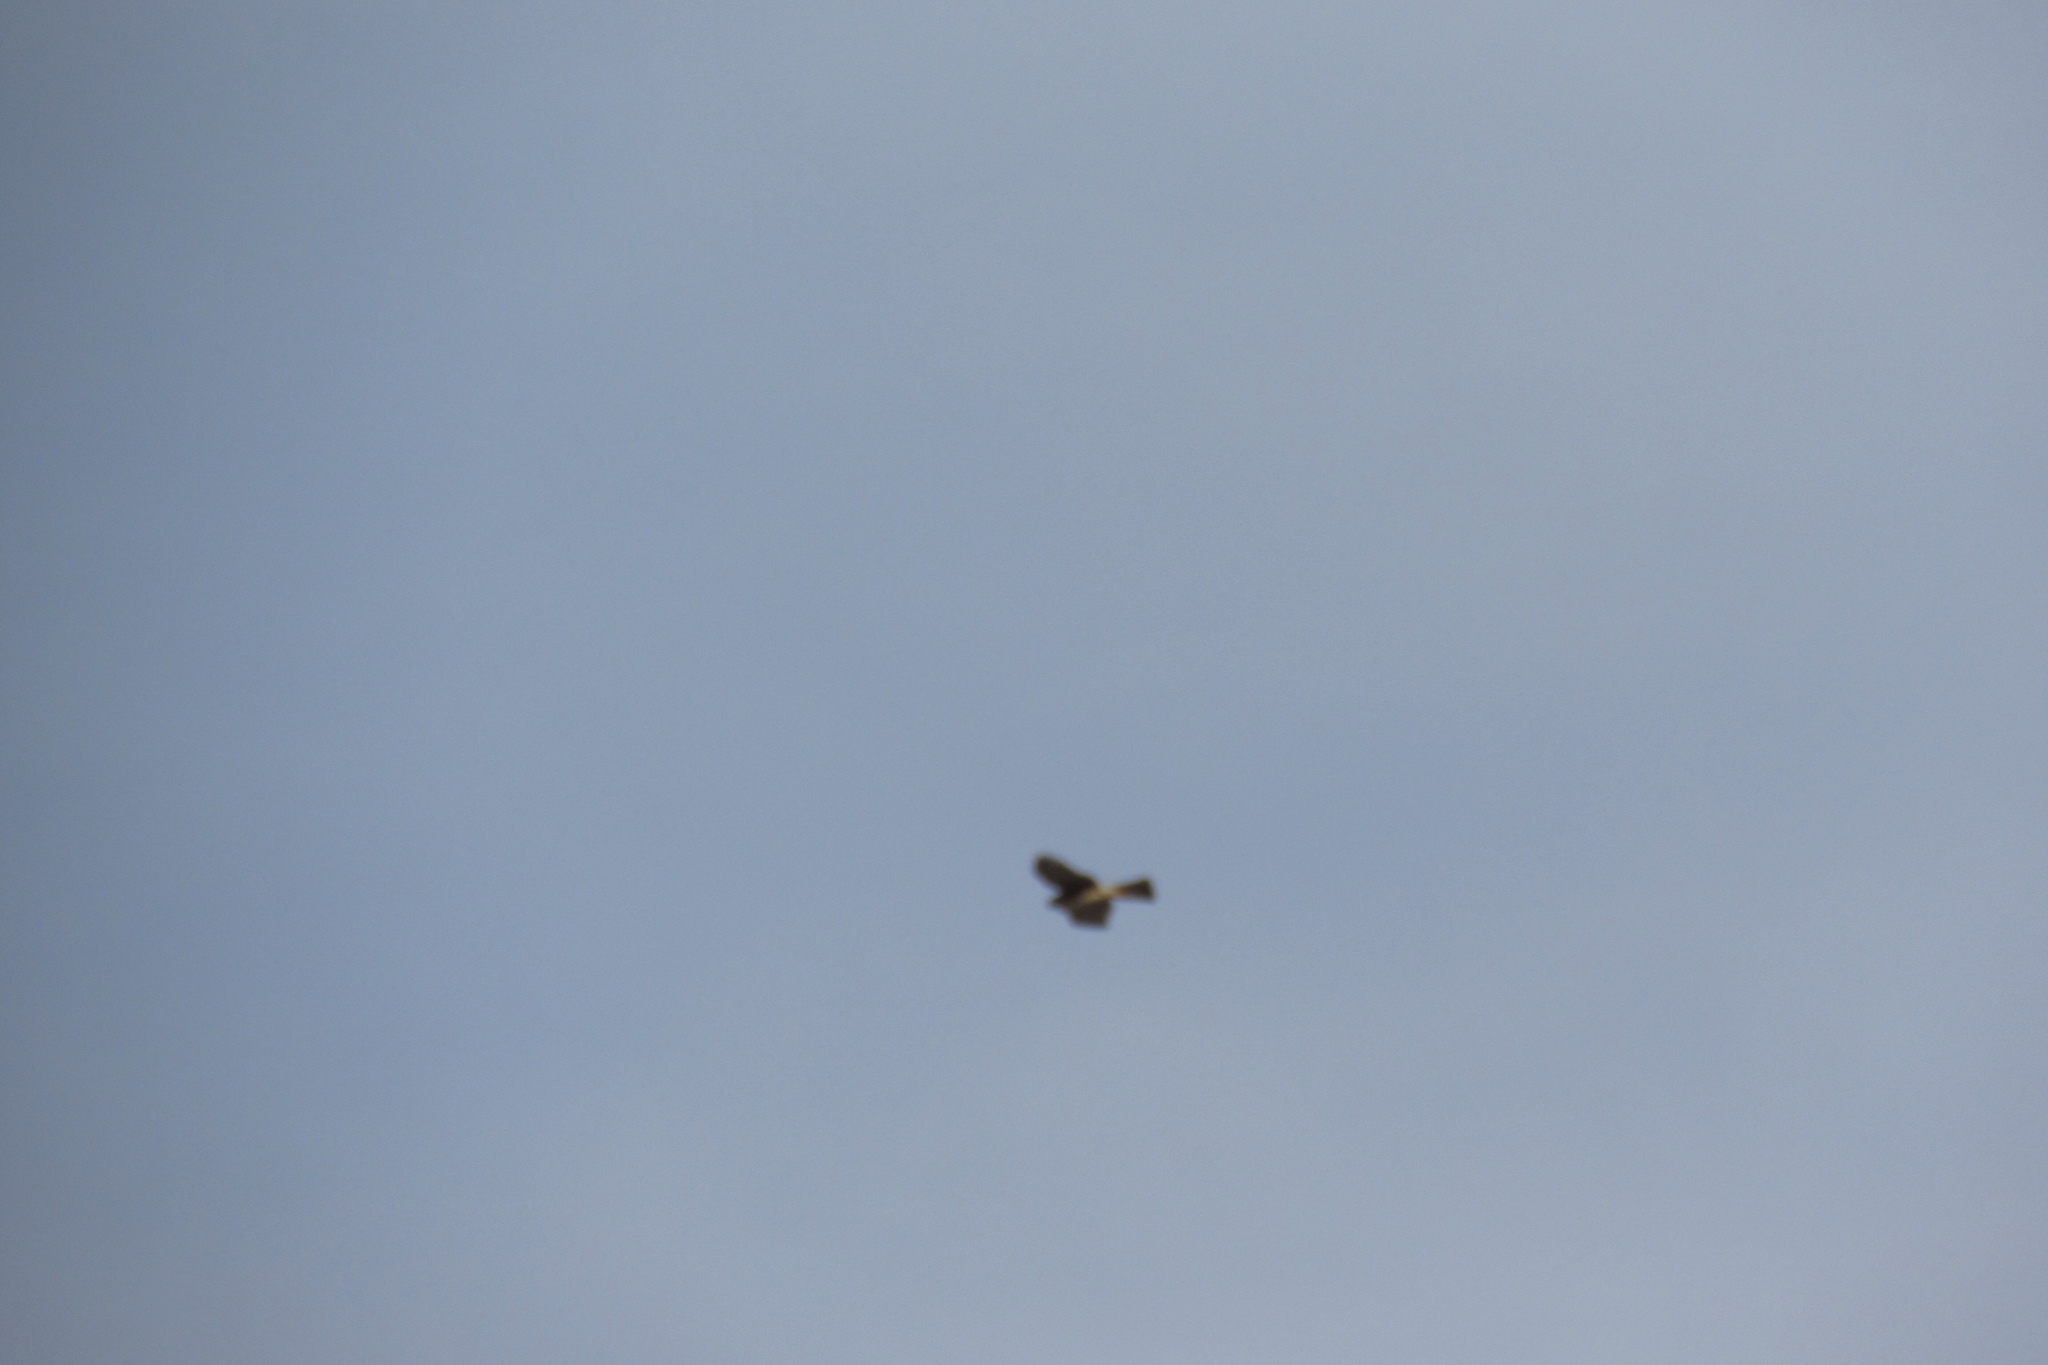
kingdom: Animalia
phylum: Chordata
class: Aves
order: Accipitriformes
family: Accipitridae
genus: Accipiter
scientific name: Accipiter striatus
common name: Sharp-shinned hawk
